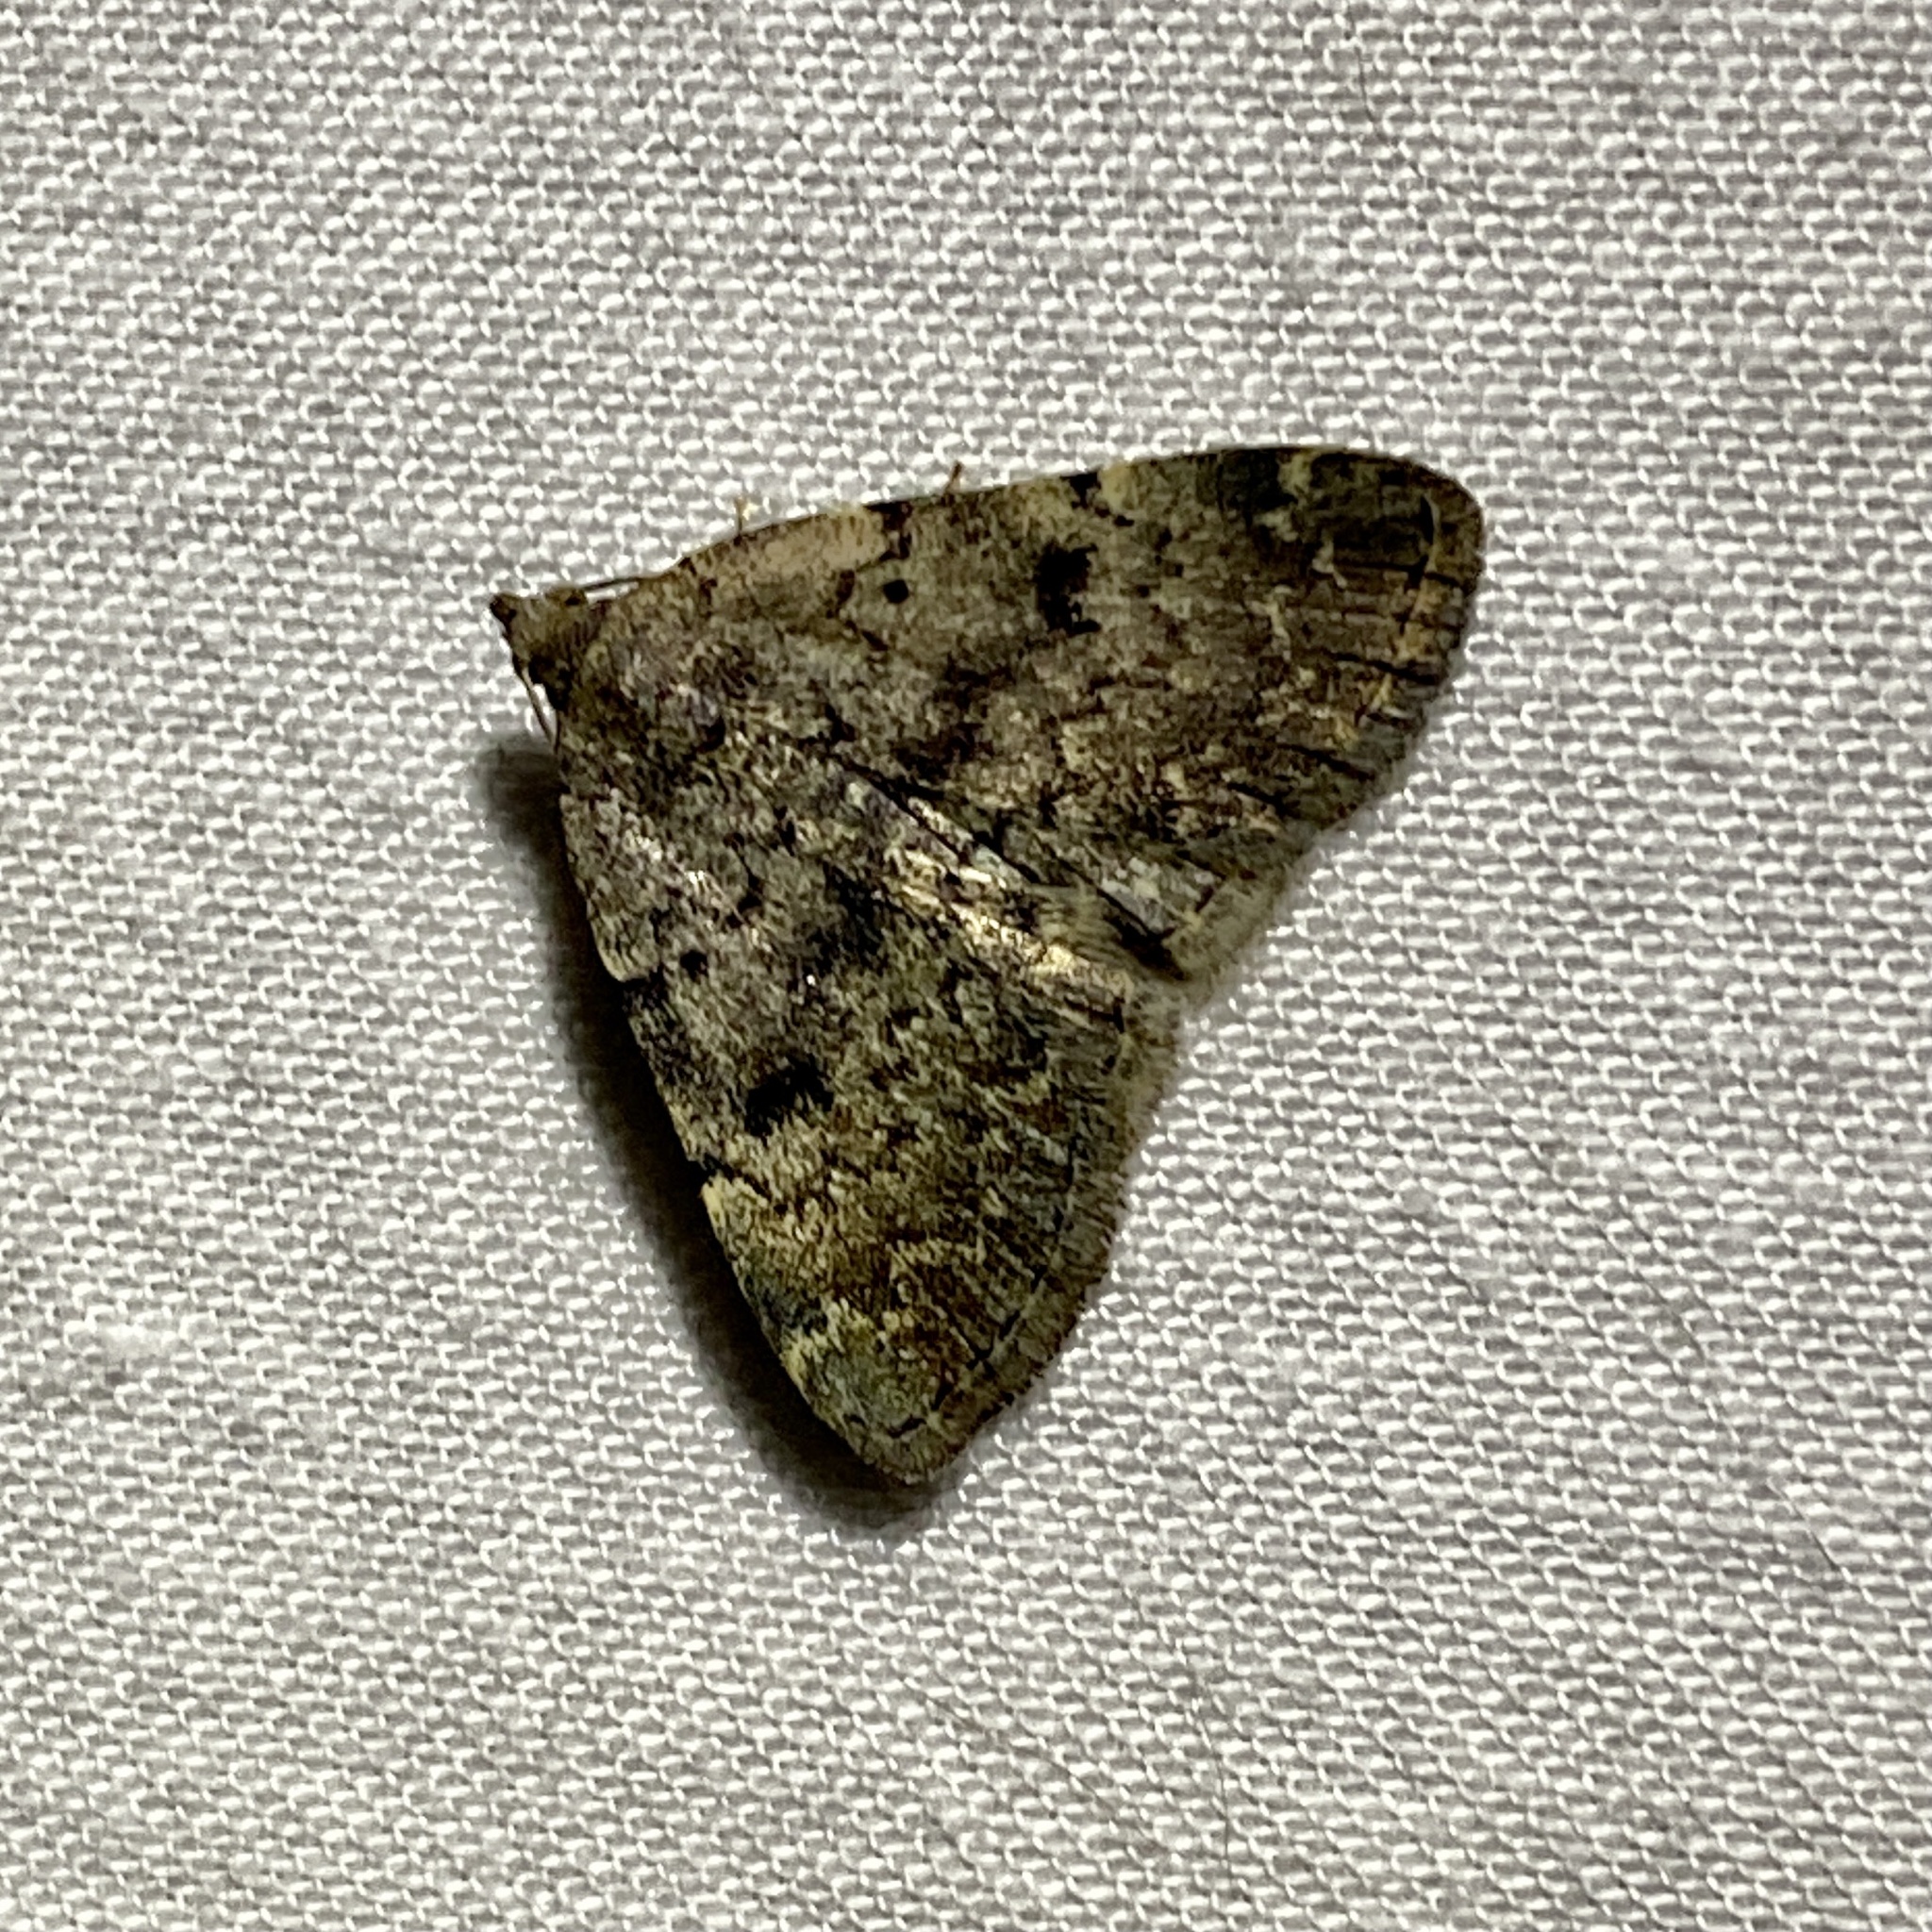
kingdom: Animalia
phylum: Arthropoda
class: Insecta
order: Lepidoptera
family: Erebidae
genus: Idia
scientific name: Idia aemula
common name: Common idia moth
